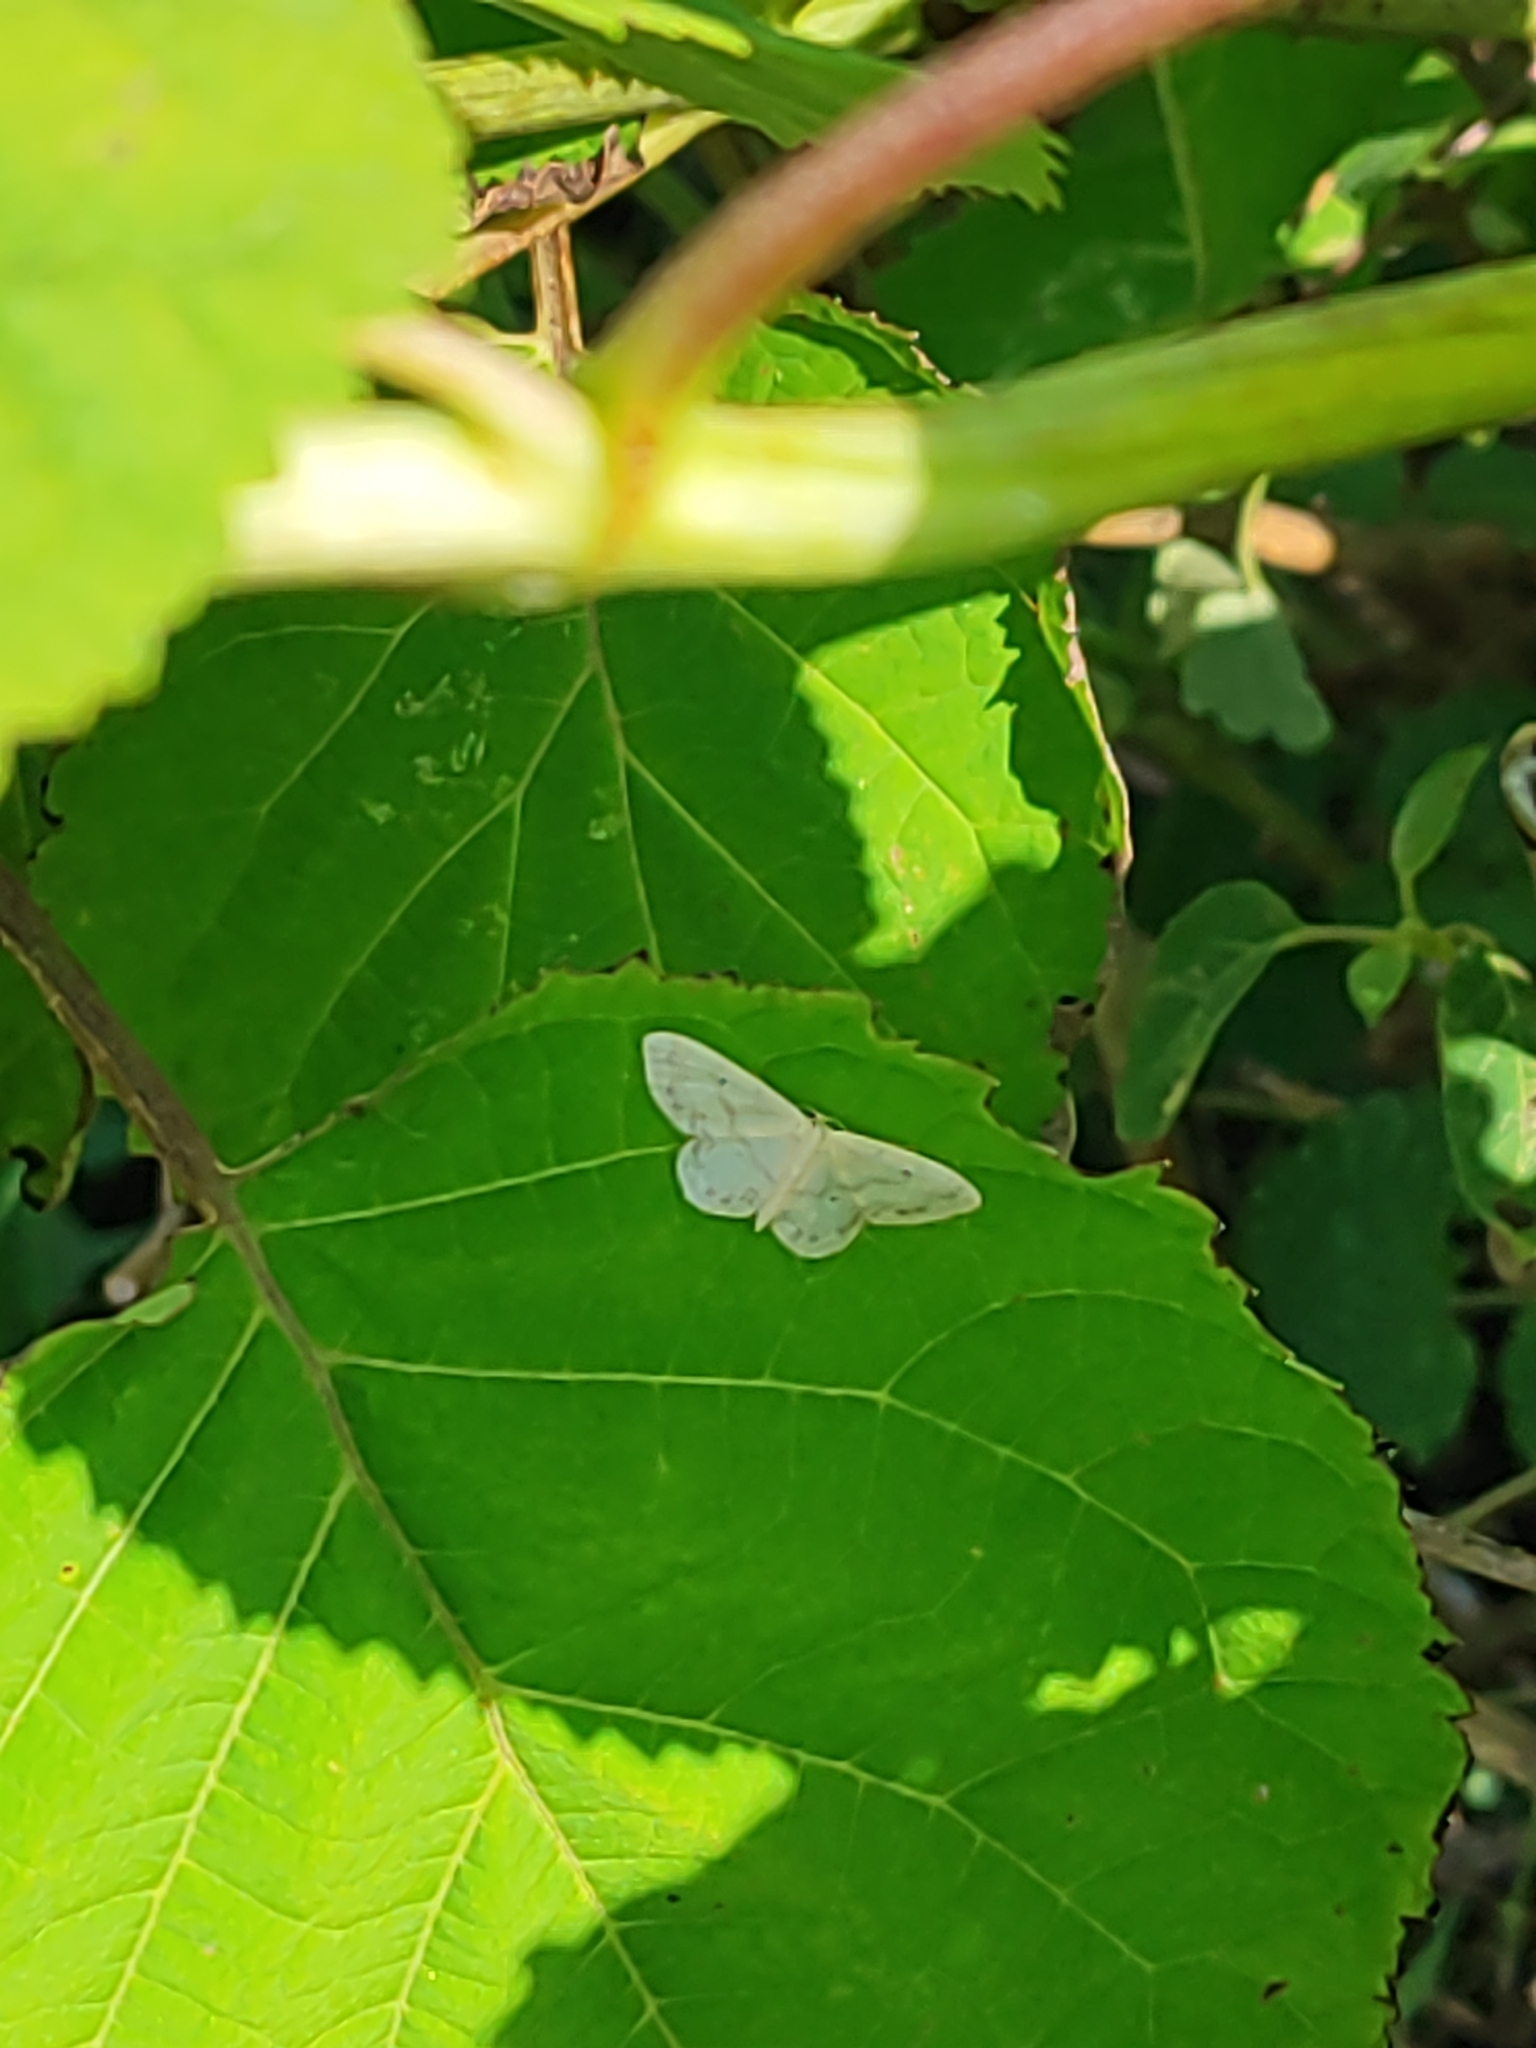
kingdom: Animalia
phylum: Arthropoda
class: Insecta
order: Lepidoptera
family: Geometridae
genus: Idaea
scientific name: Idaea biselata
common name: Small fan-footed wave
